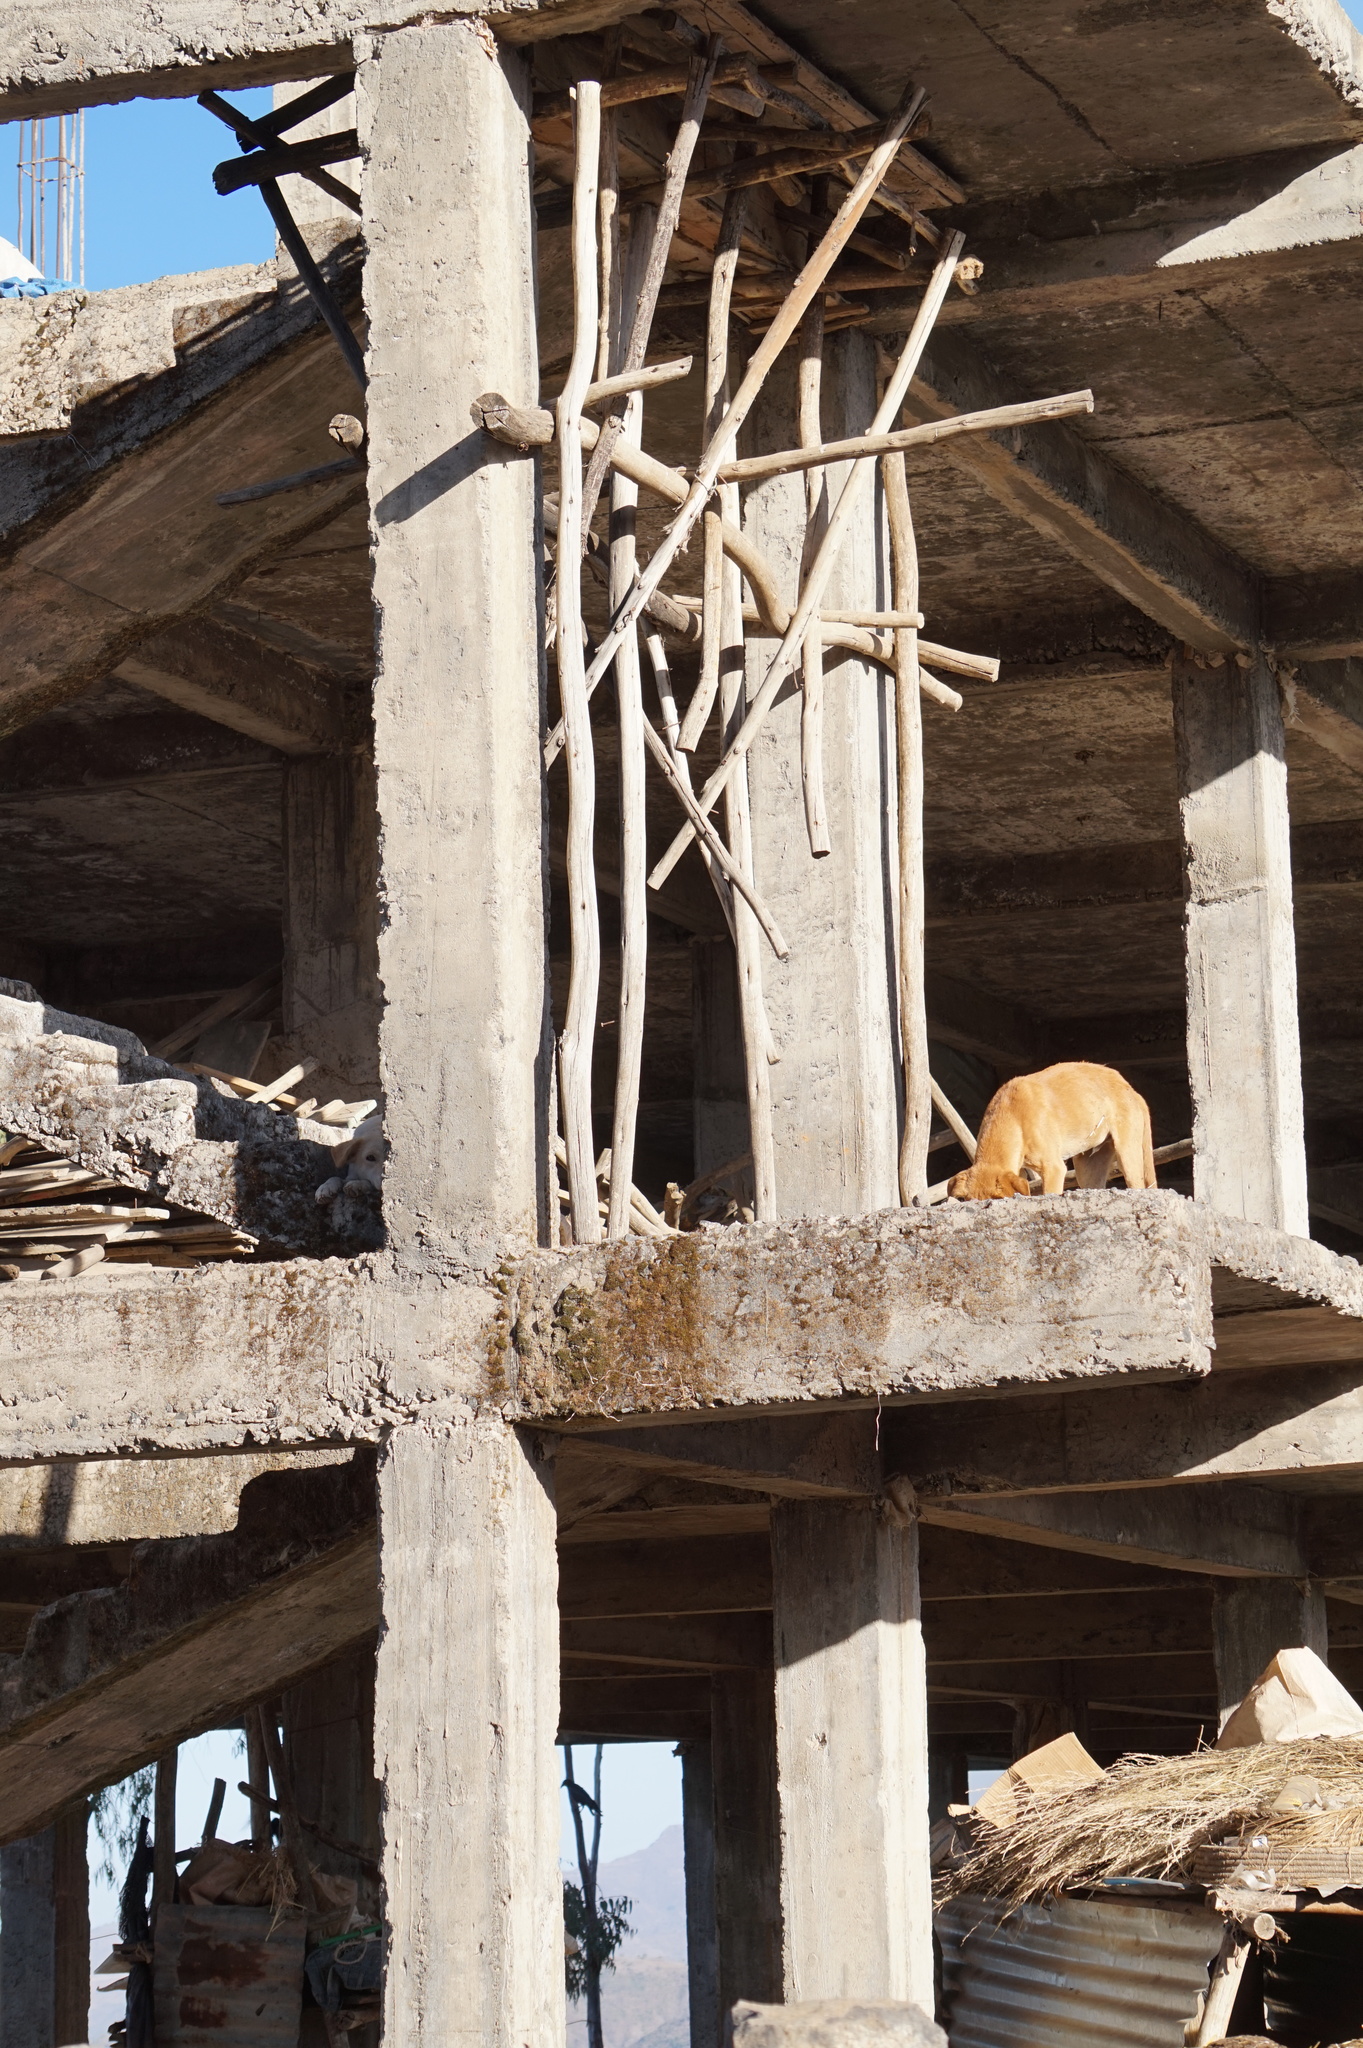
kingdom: Animalia
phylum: Chordata
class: Mammalia
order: Carnivora
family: Canidae
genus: Canis
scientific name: Canis lupus
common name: Gray wolf
